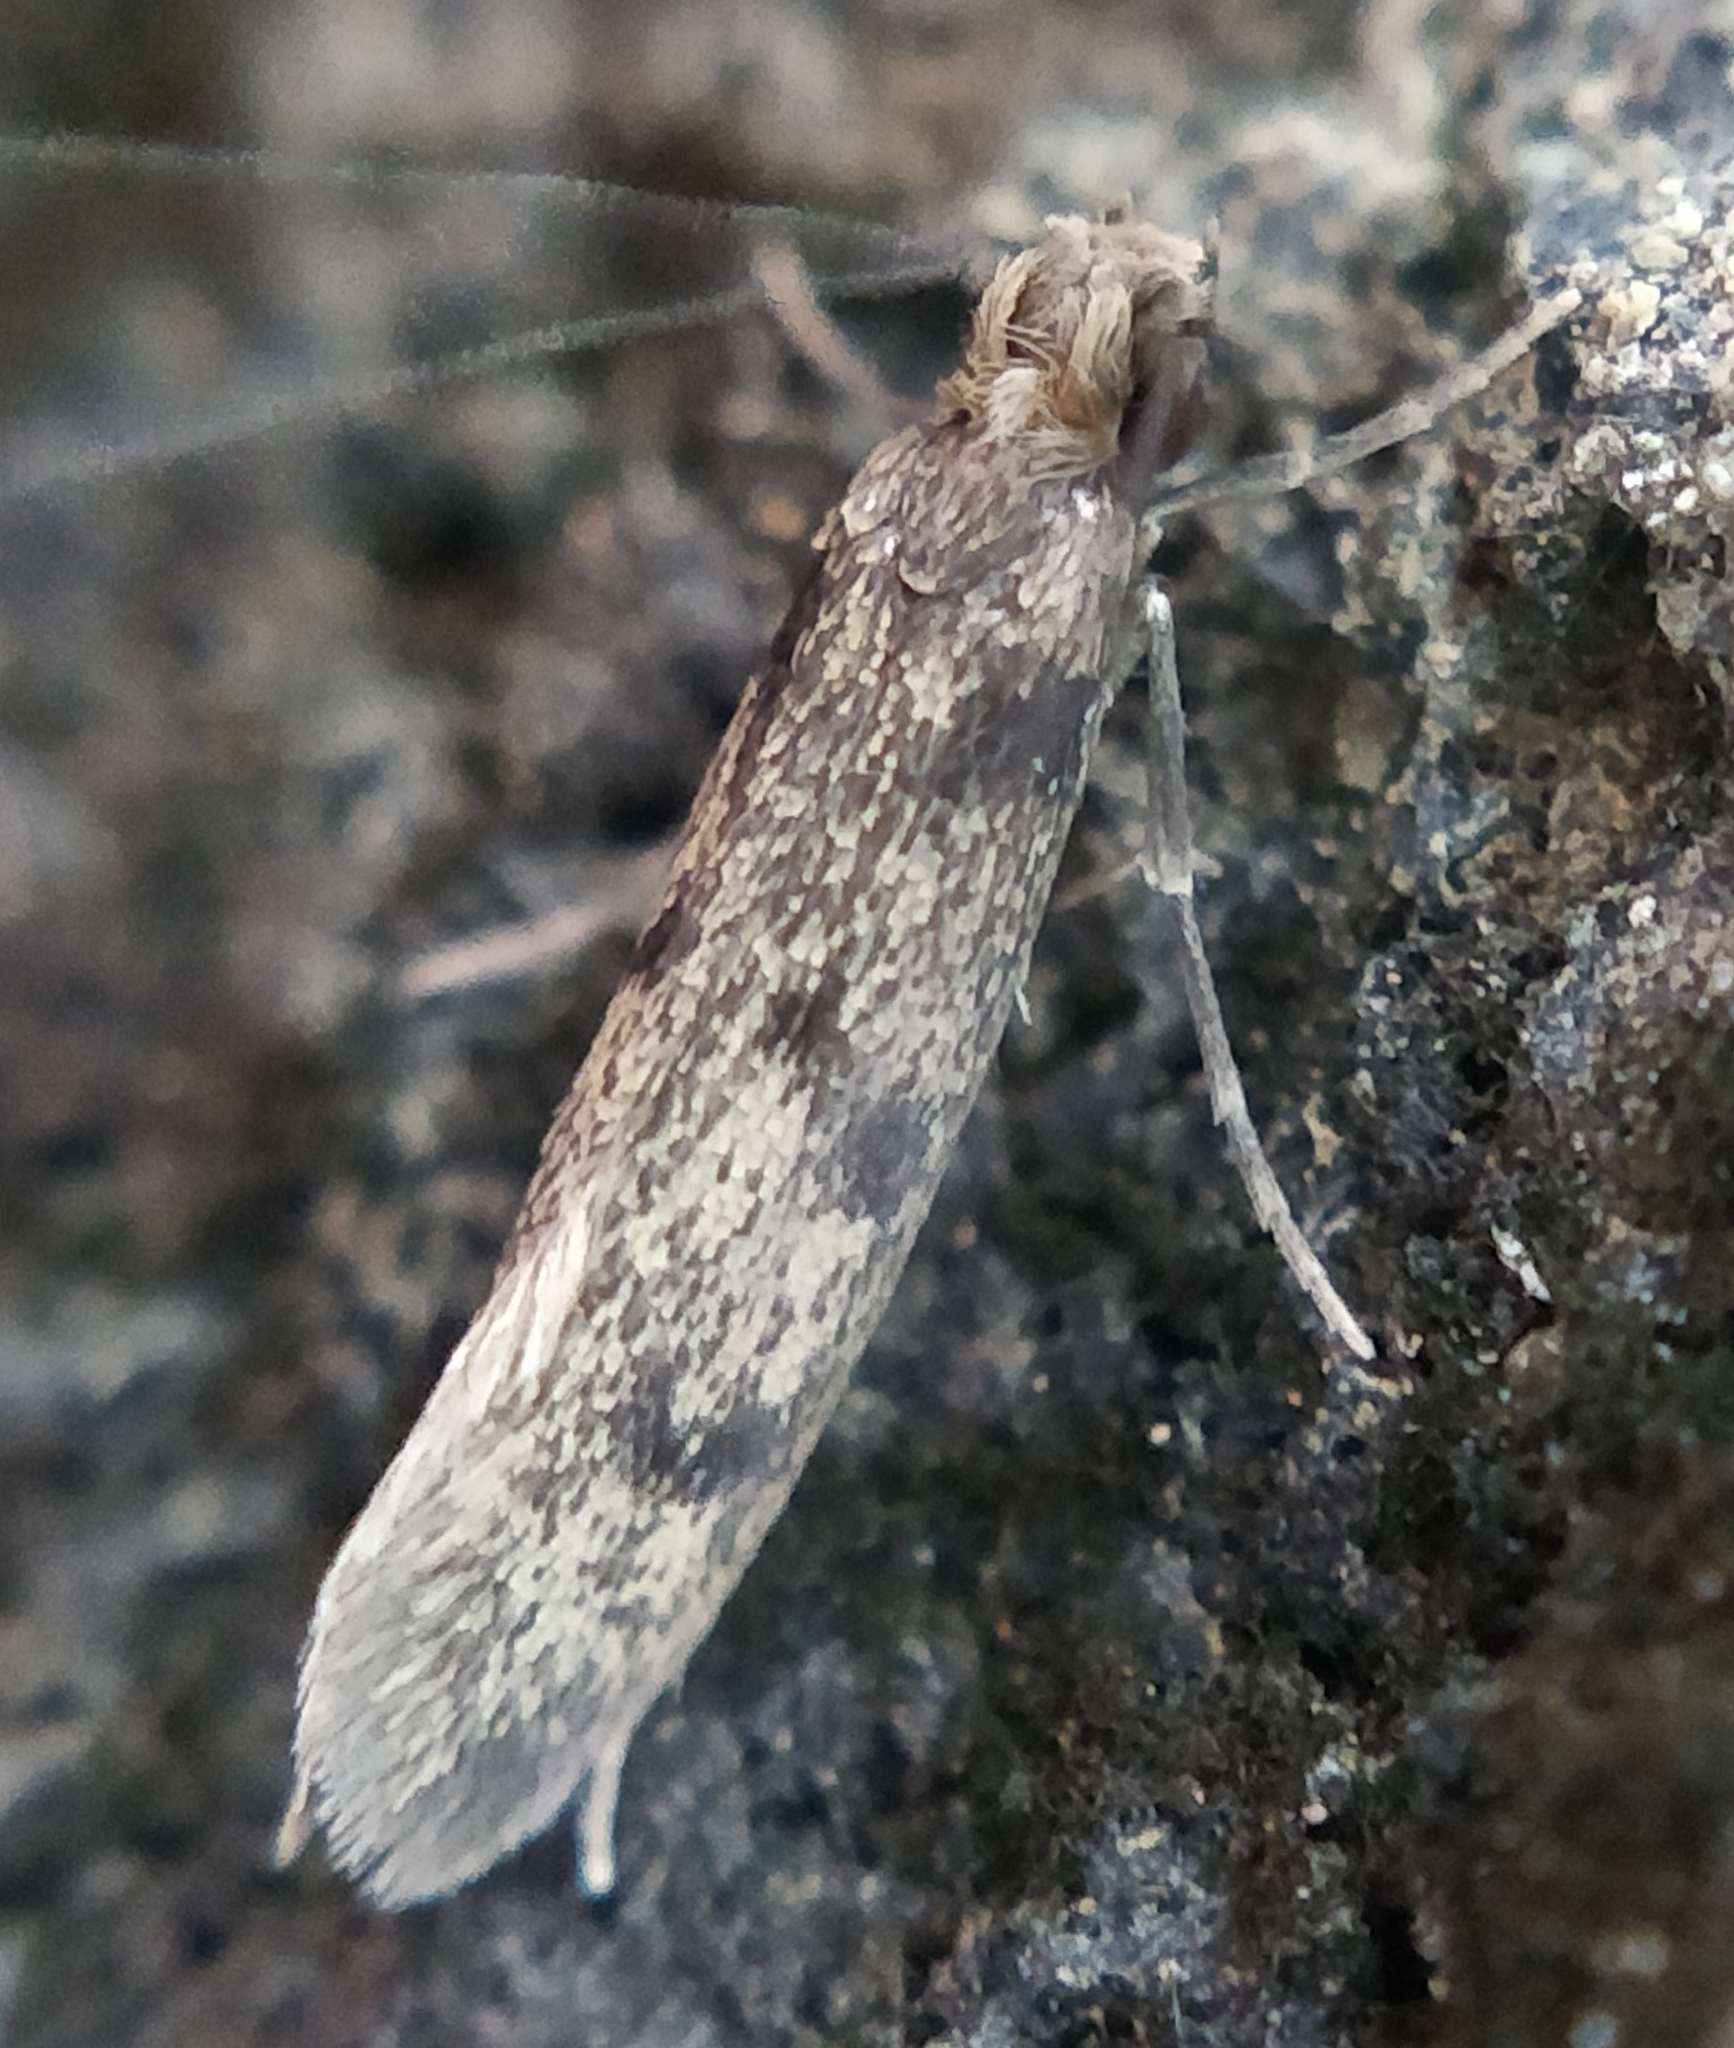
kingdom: Animalia
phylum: Arthropoda
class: Insecta
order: Lepidoptera
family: Tineidae
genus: Phereoeca
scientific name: Phereoeca allutella
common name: Moth
